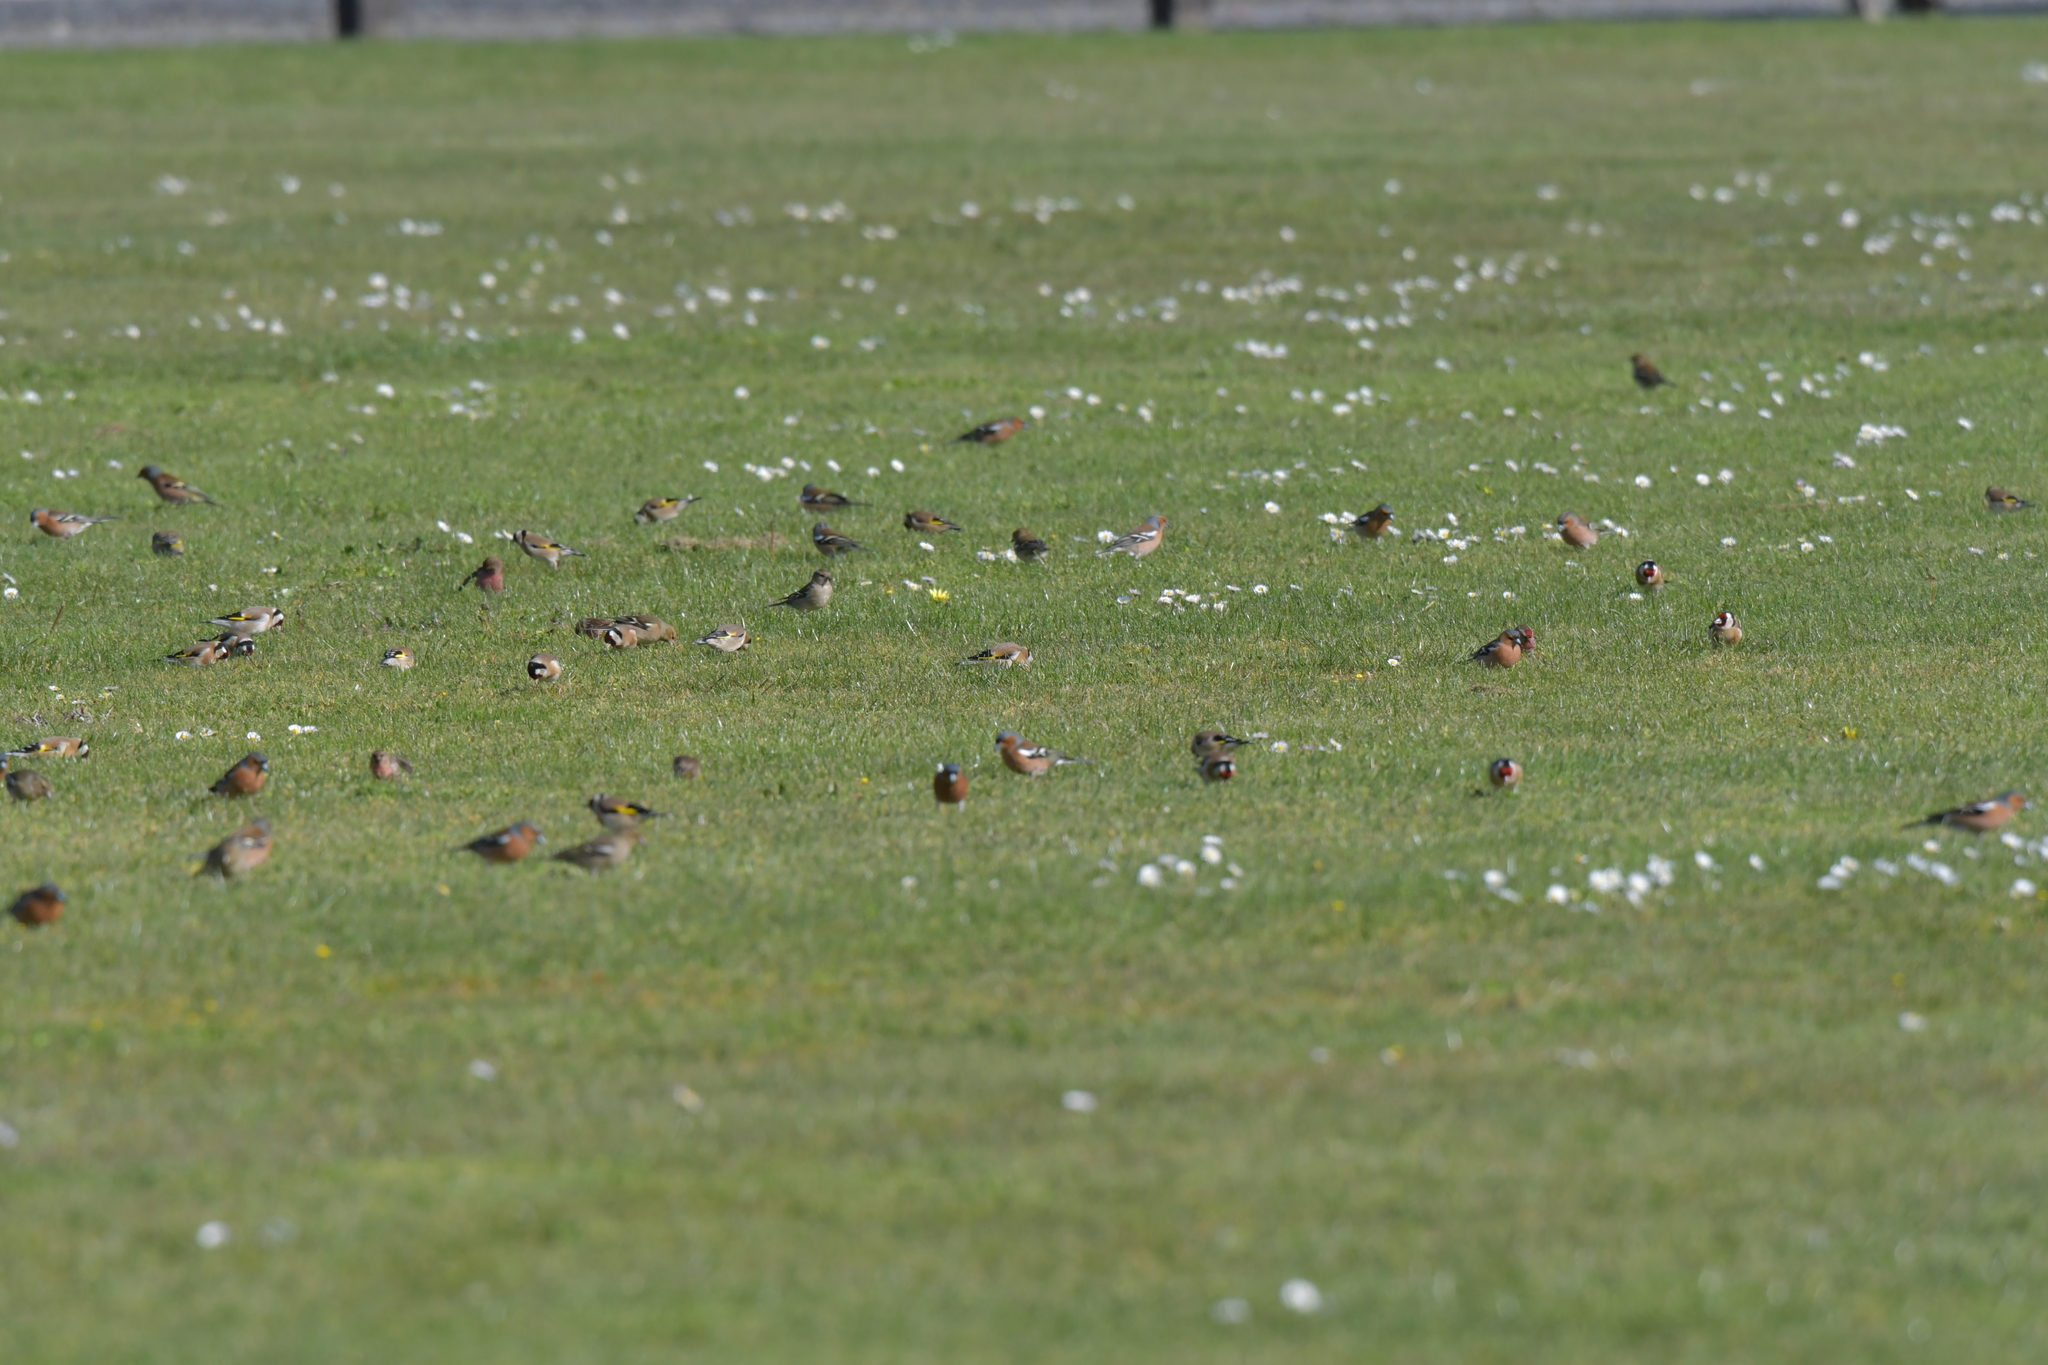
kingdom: Animalia
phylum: Chordata
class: Aves
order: Passeriformes
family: Fringillidae
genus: Fringilla
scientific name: Fringilla coelebs
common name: Common chaffinch
